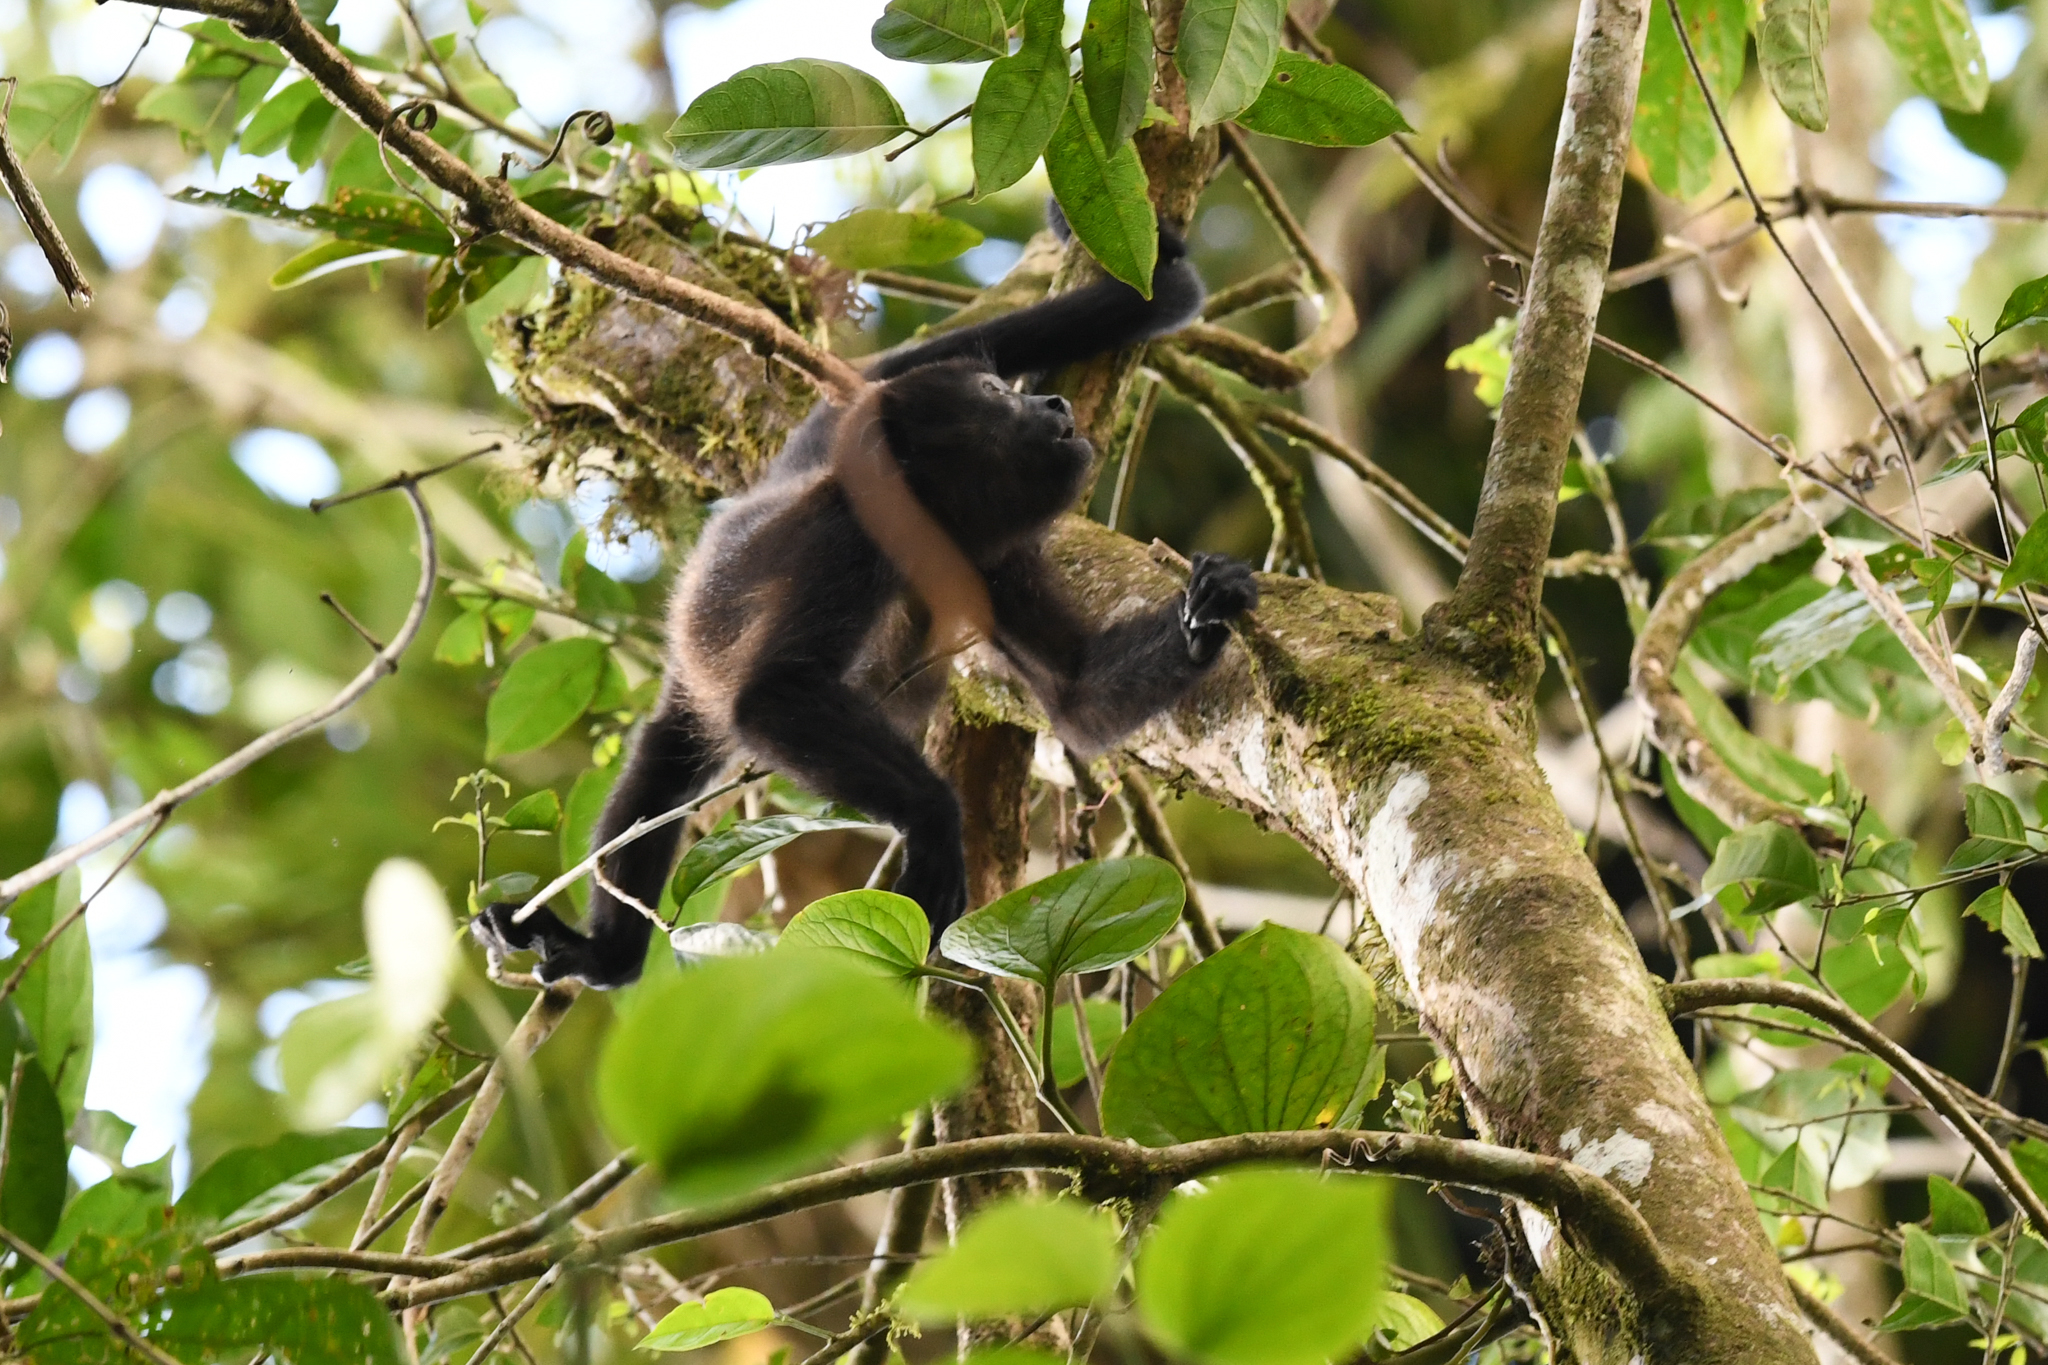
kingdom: Animalia
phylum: Chordata
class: Mammalia
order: Primates
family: Atelidae
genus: Alouatta
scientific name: Alouatta palliata
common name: Mantled howler
